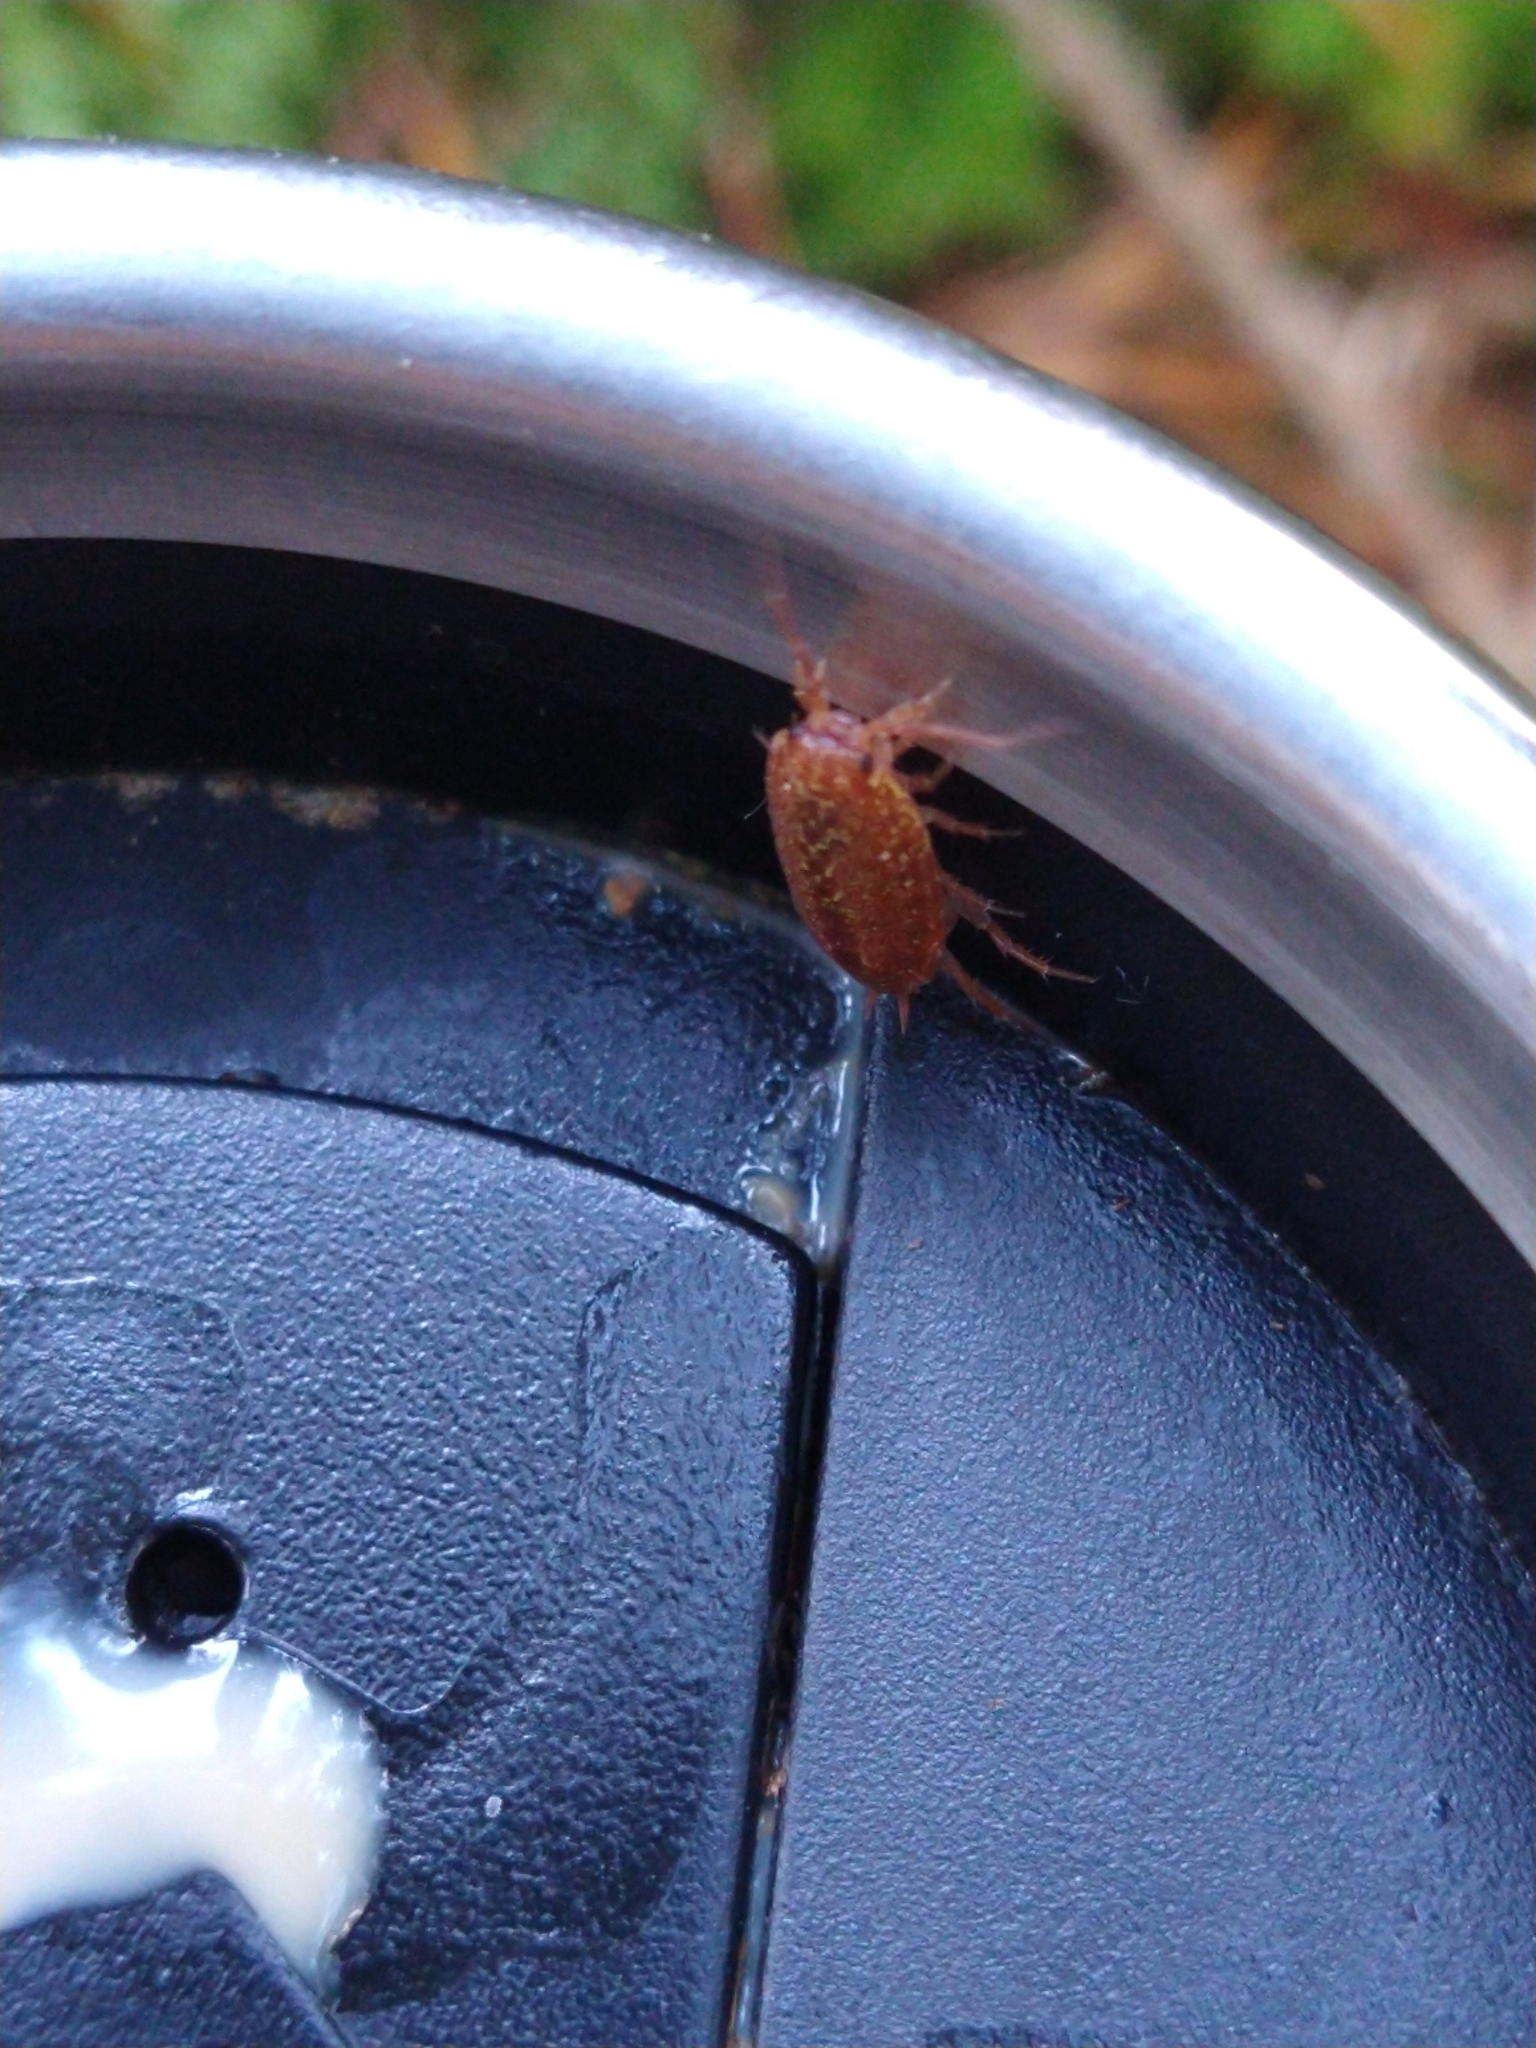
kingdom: Animalia
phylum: Arthropoda
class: Malacostraca
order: Isopoda
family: Philosciidae
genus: Philoscia
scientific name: Philoscia affinis
